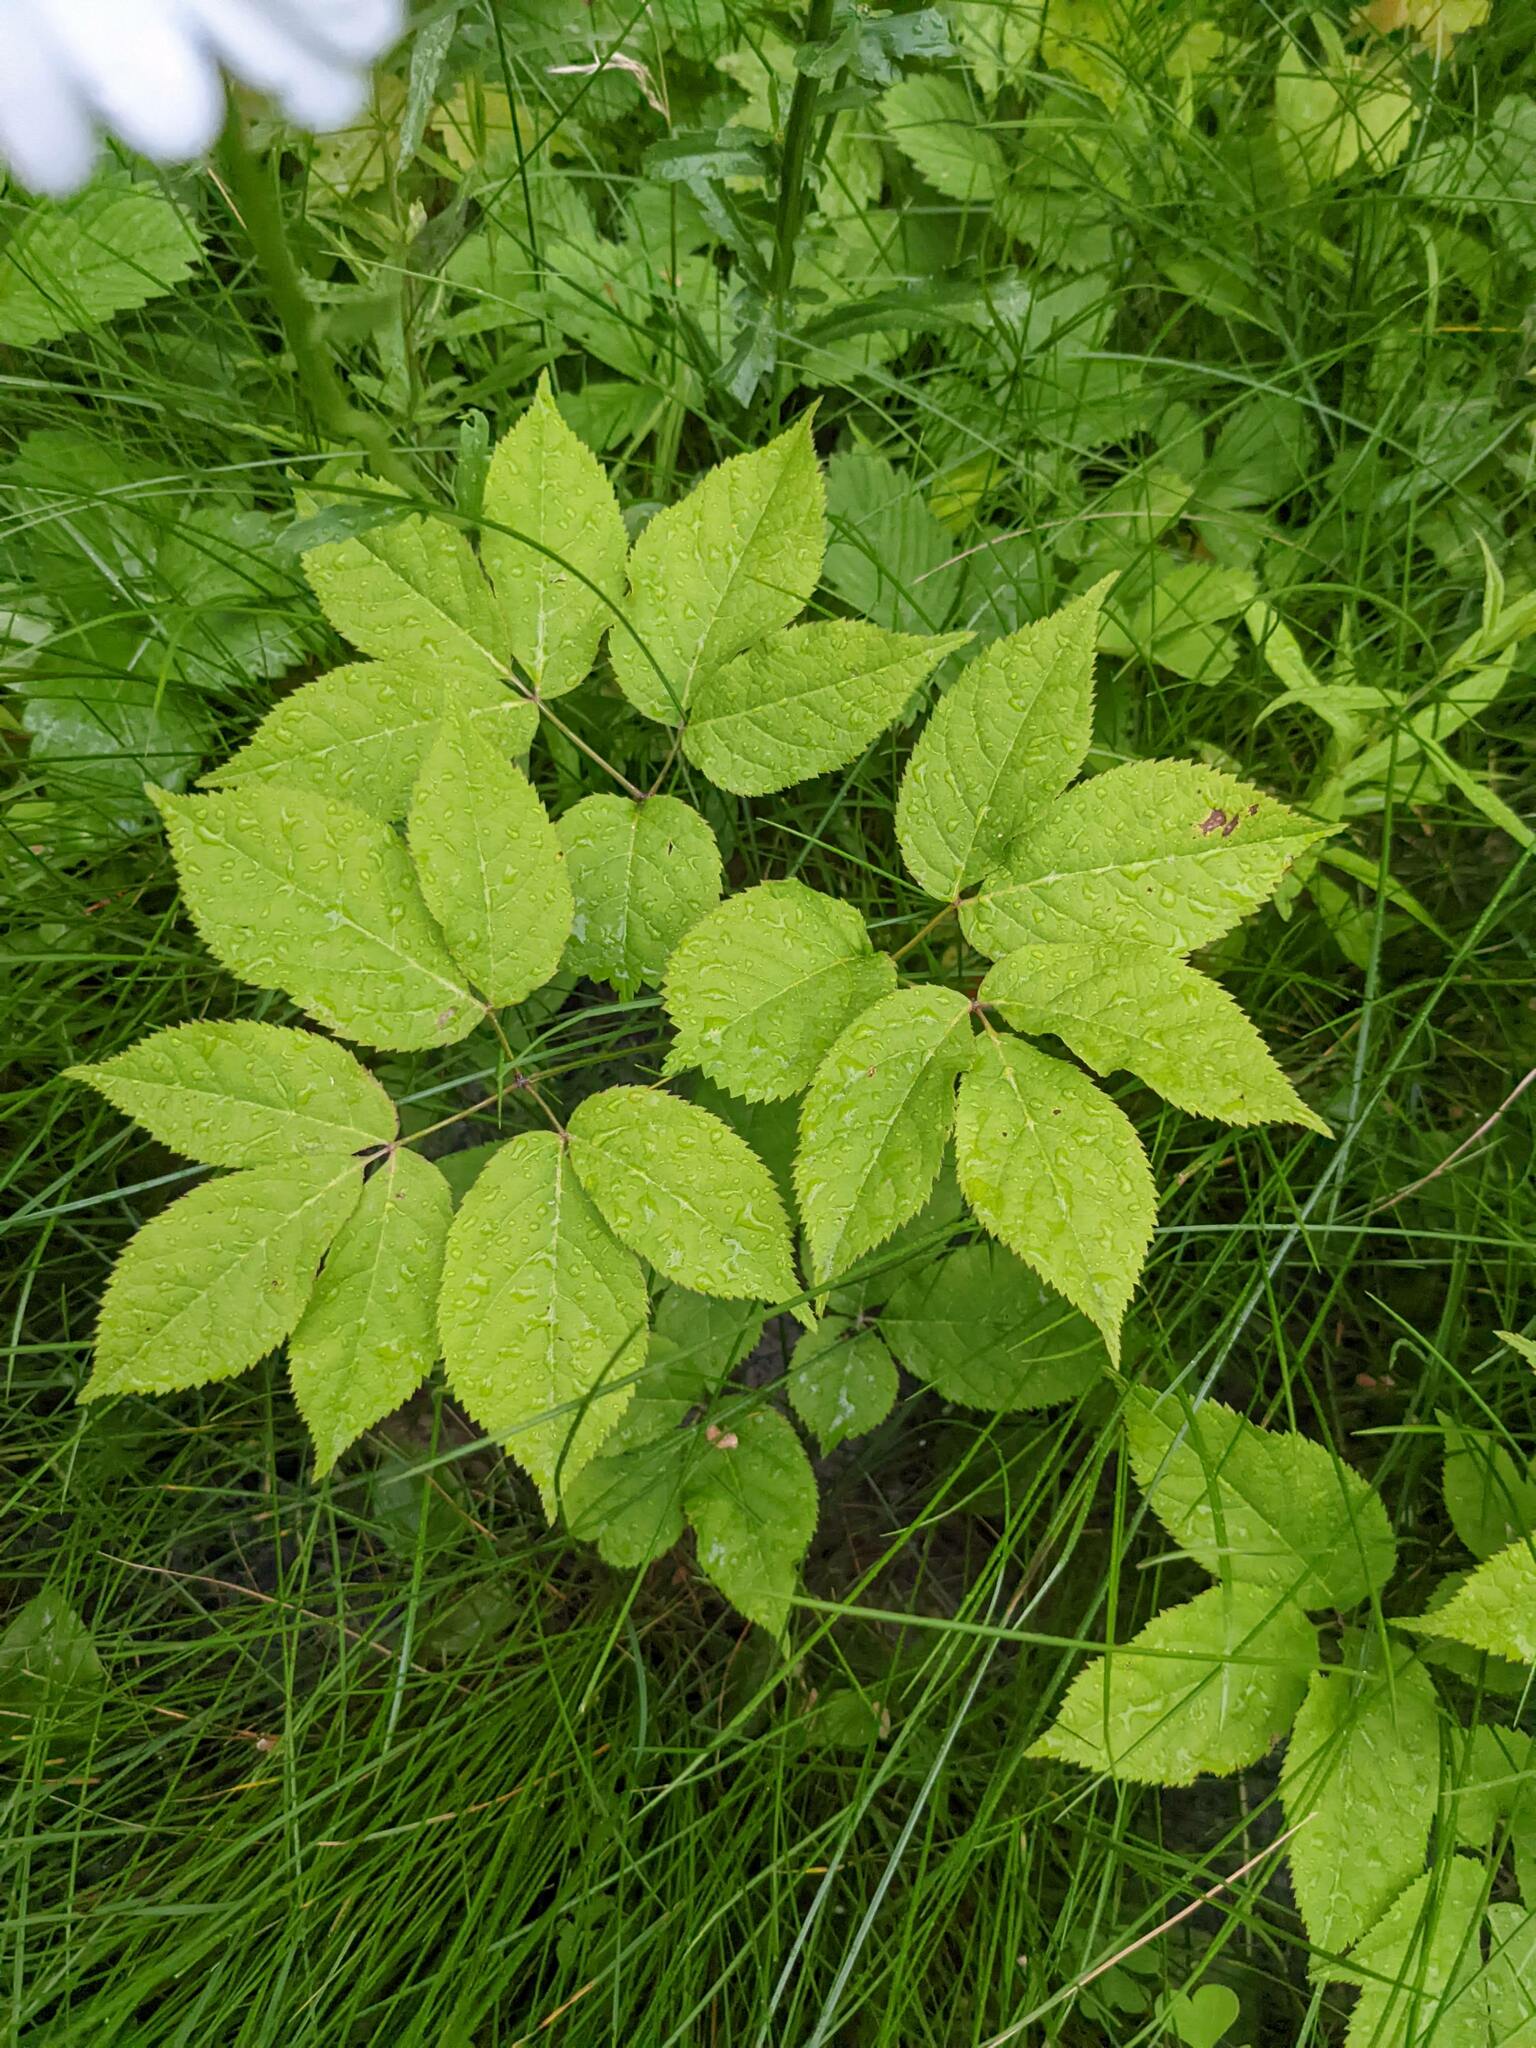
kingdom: Plantae
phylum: Tracheophyta
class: Magnoliopsida
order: Apiales
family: Araliaceae
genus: Aralia
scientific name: Aralia nudicaulis
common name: Wild sarsaparilla
